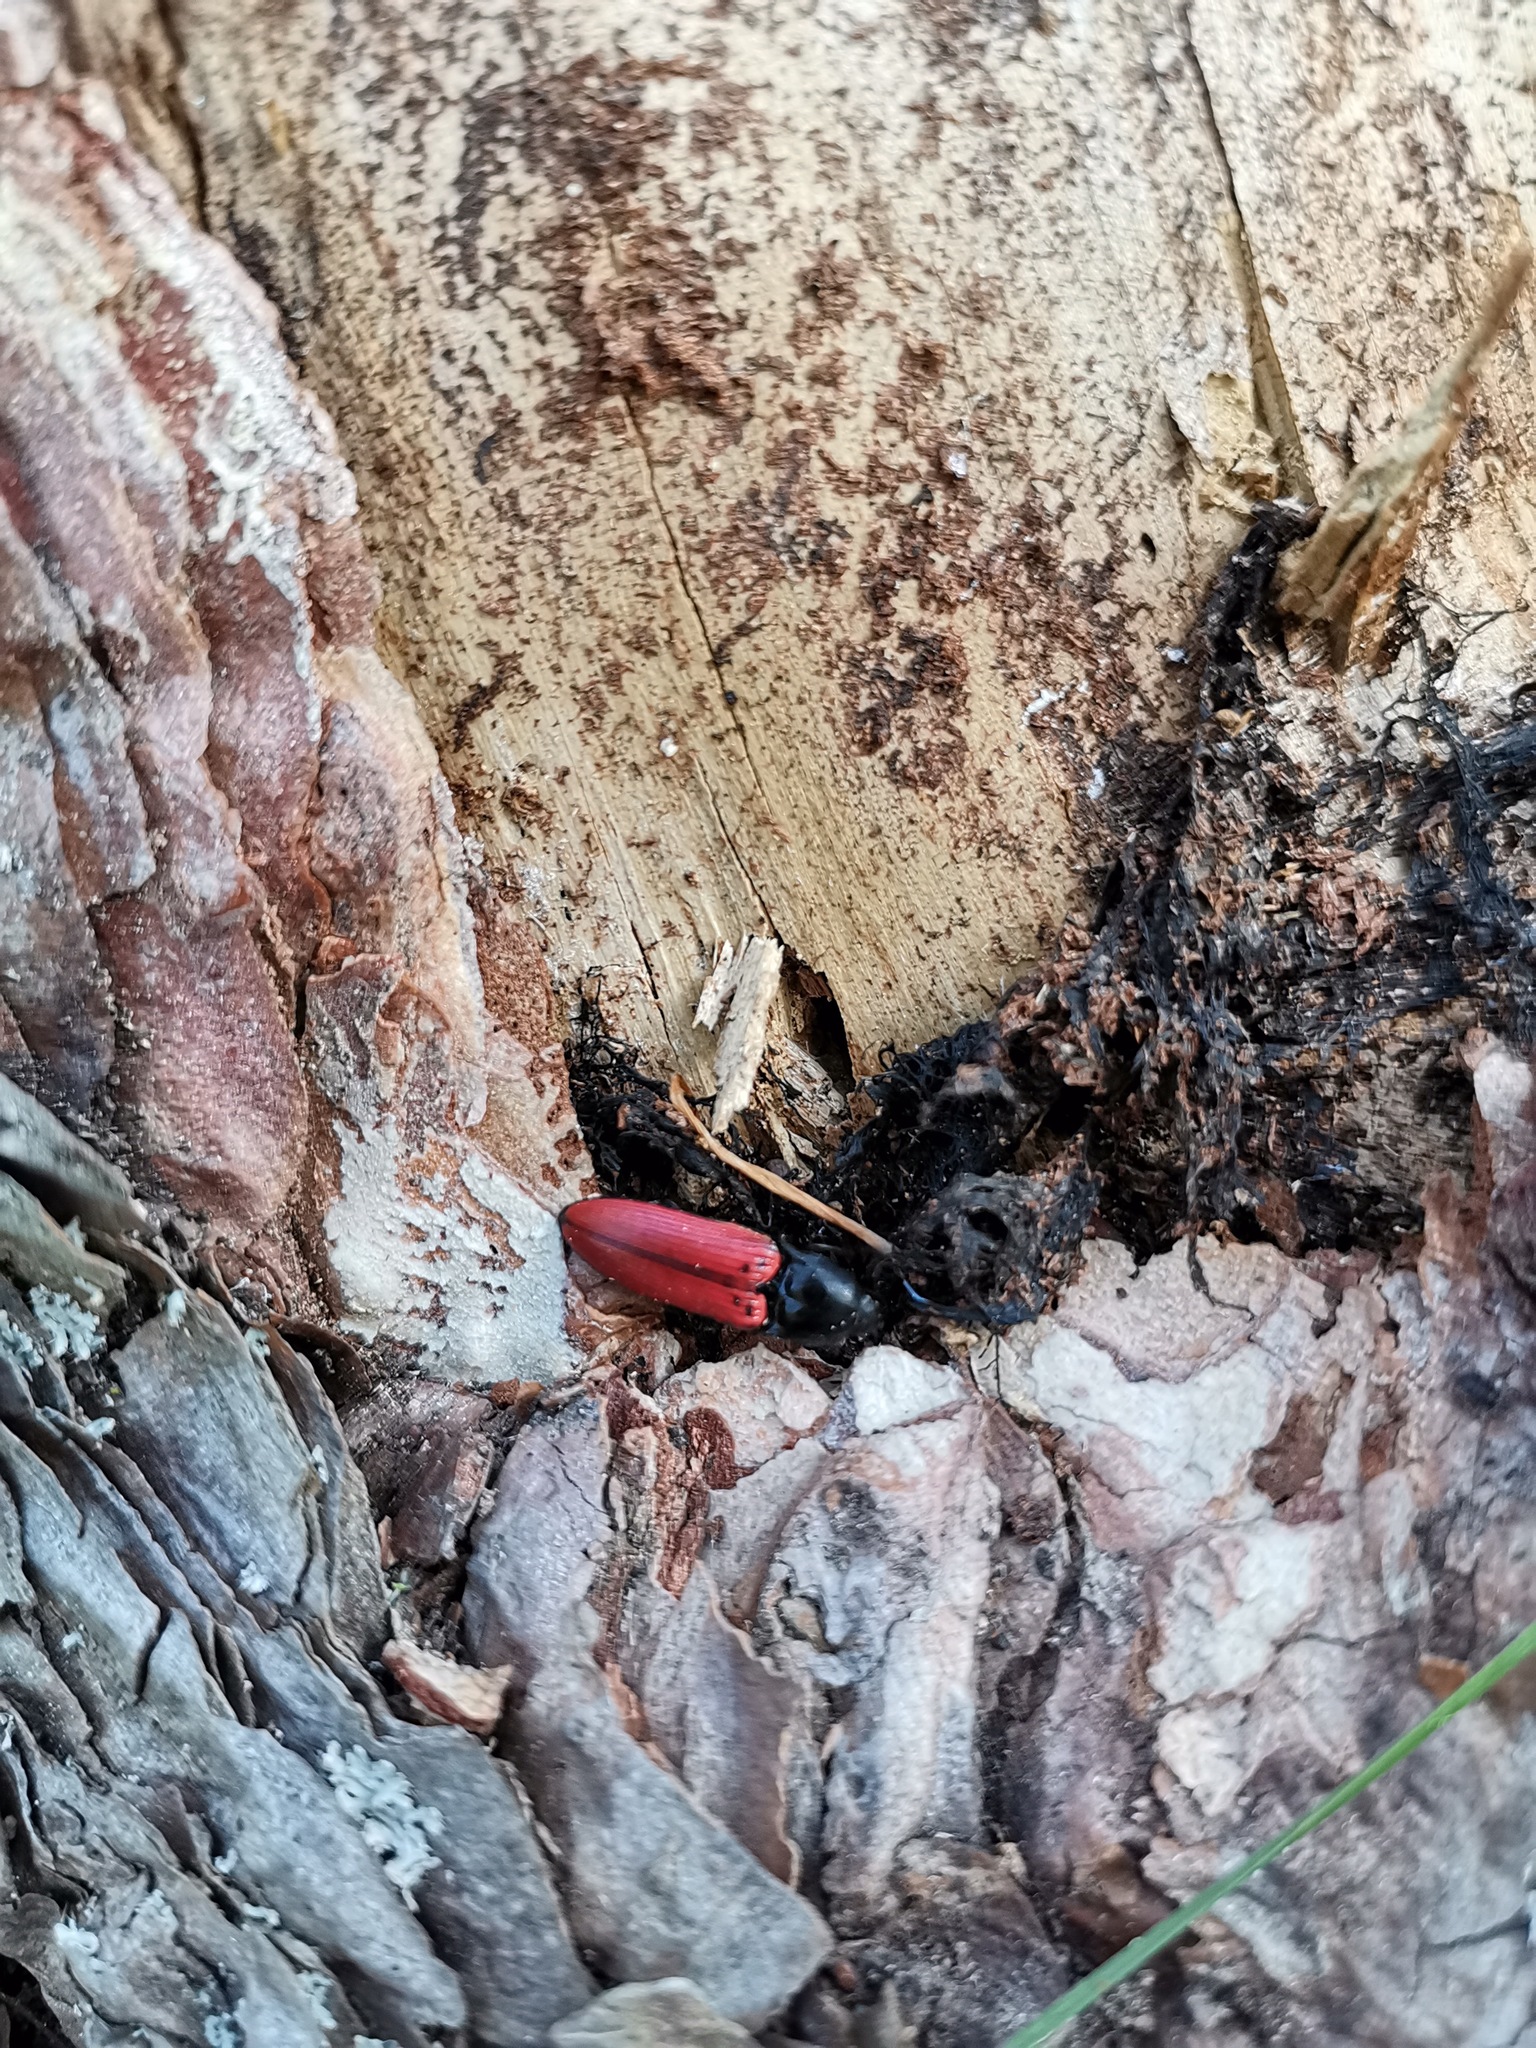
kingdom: Animalia
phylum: Arthropoda
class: Insecta
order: Coleoptera
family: Elateridae
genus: Ampedus
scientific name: Ampedus sanguineus
